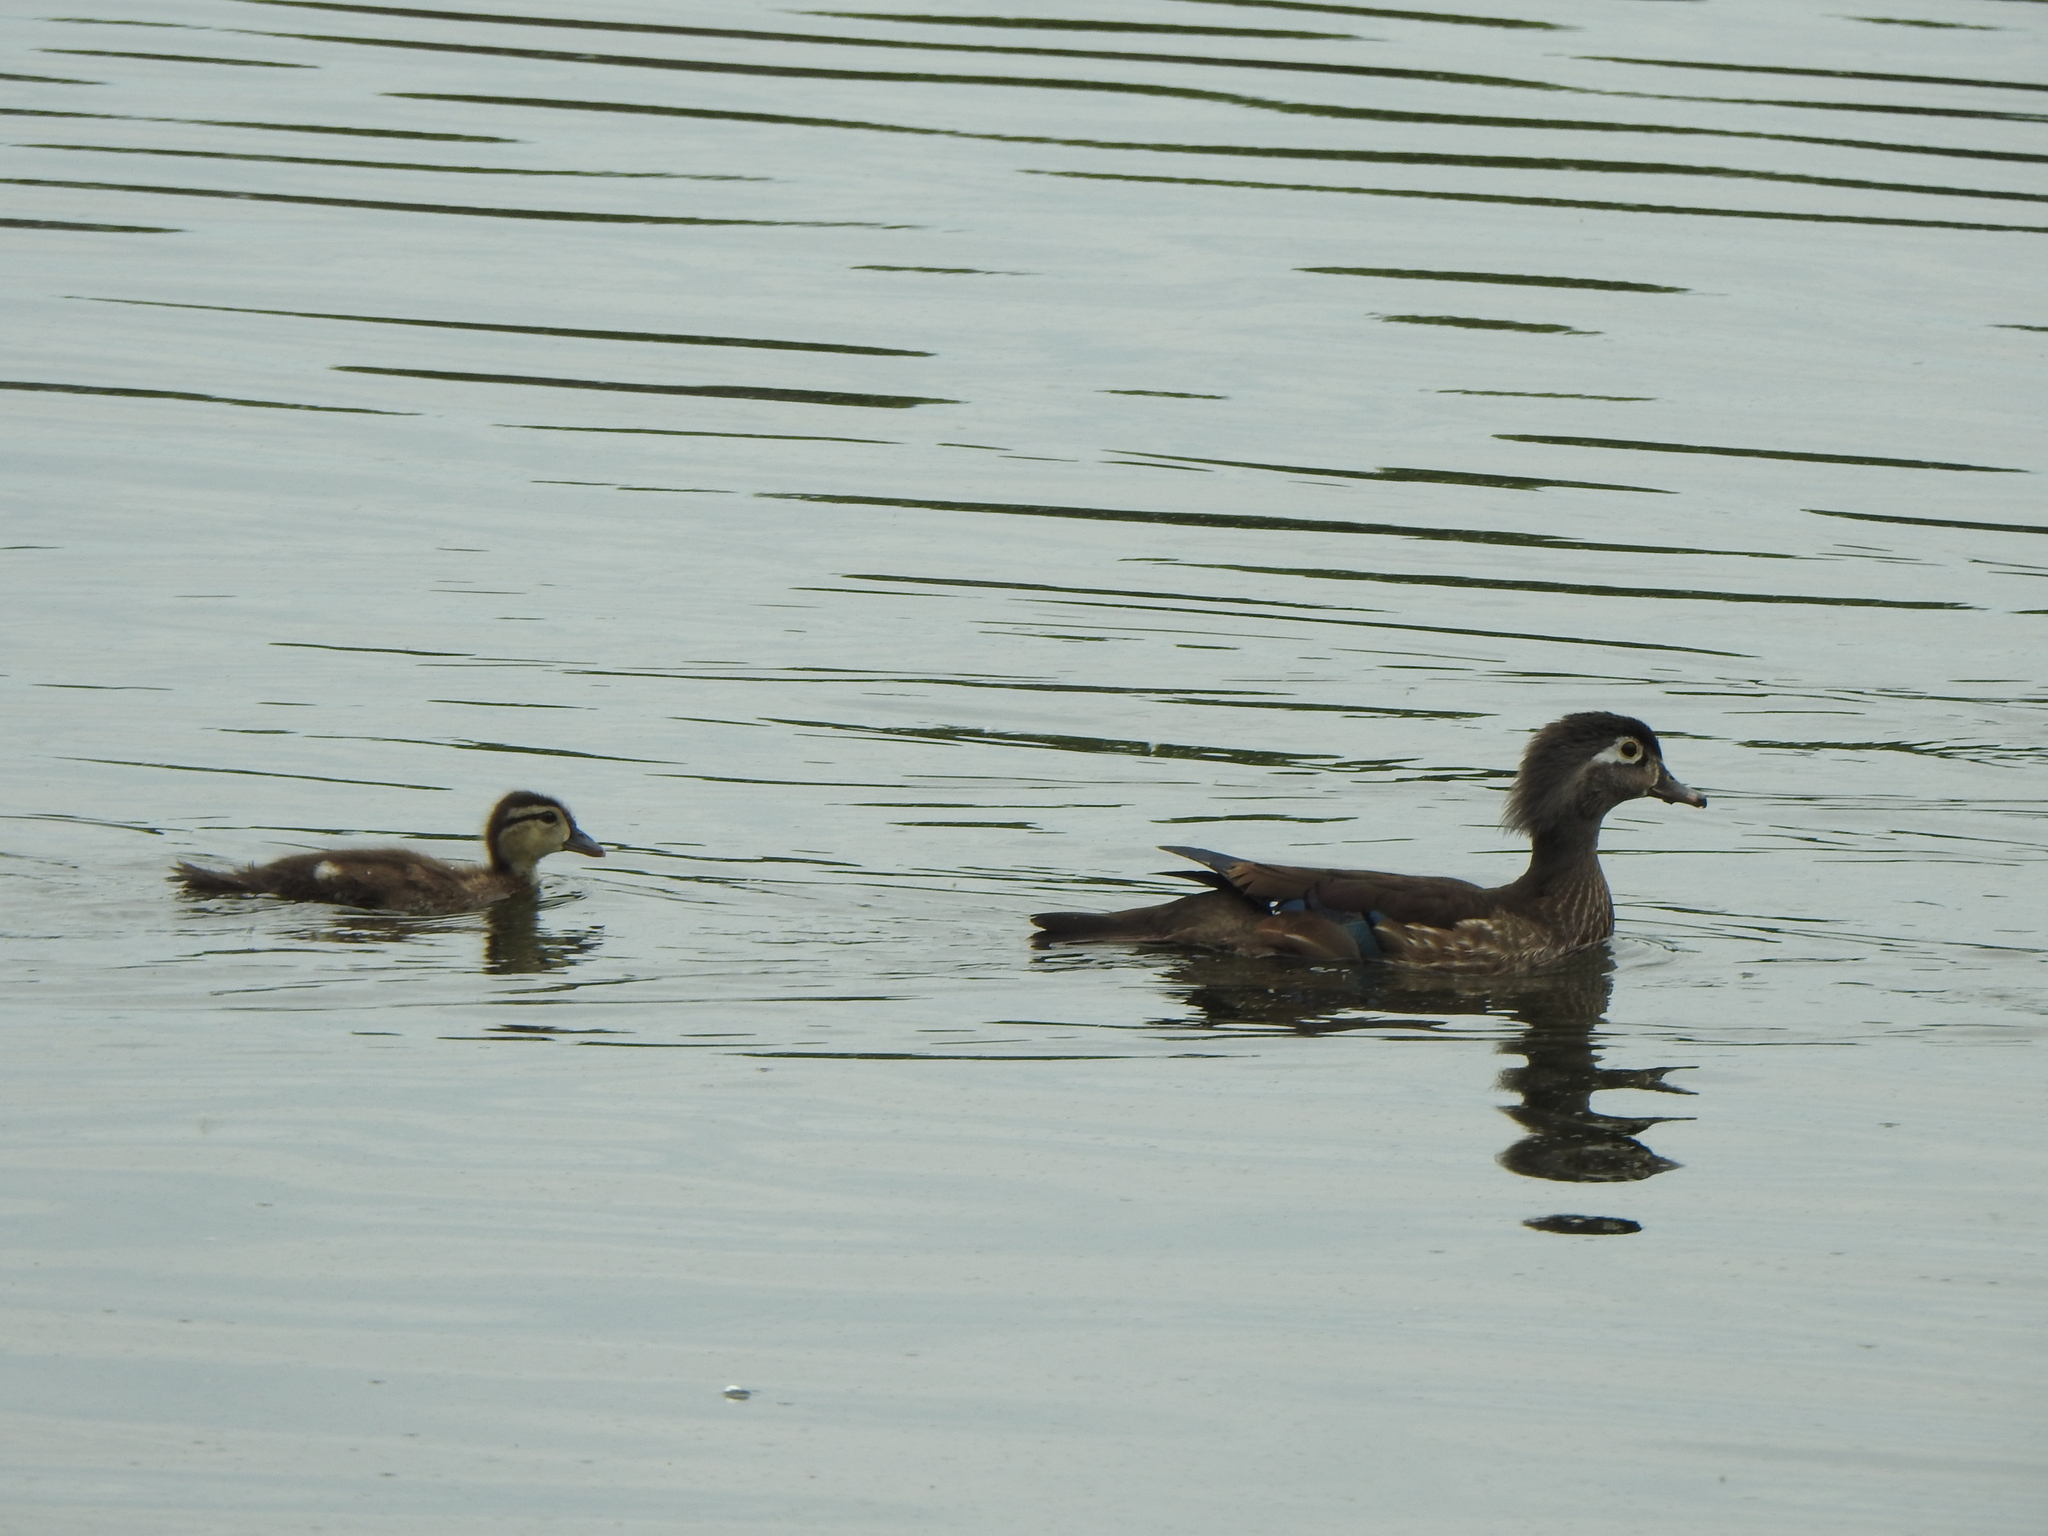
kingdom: Animalia
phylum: Chordata
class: Aves
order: Anseriformes
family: Anatidae
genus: Aix
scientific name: Aix sponsa
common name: Wood duck
